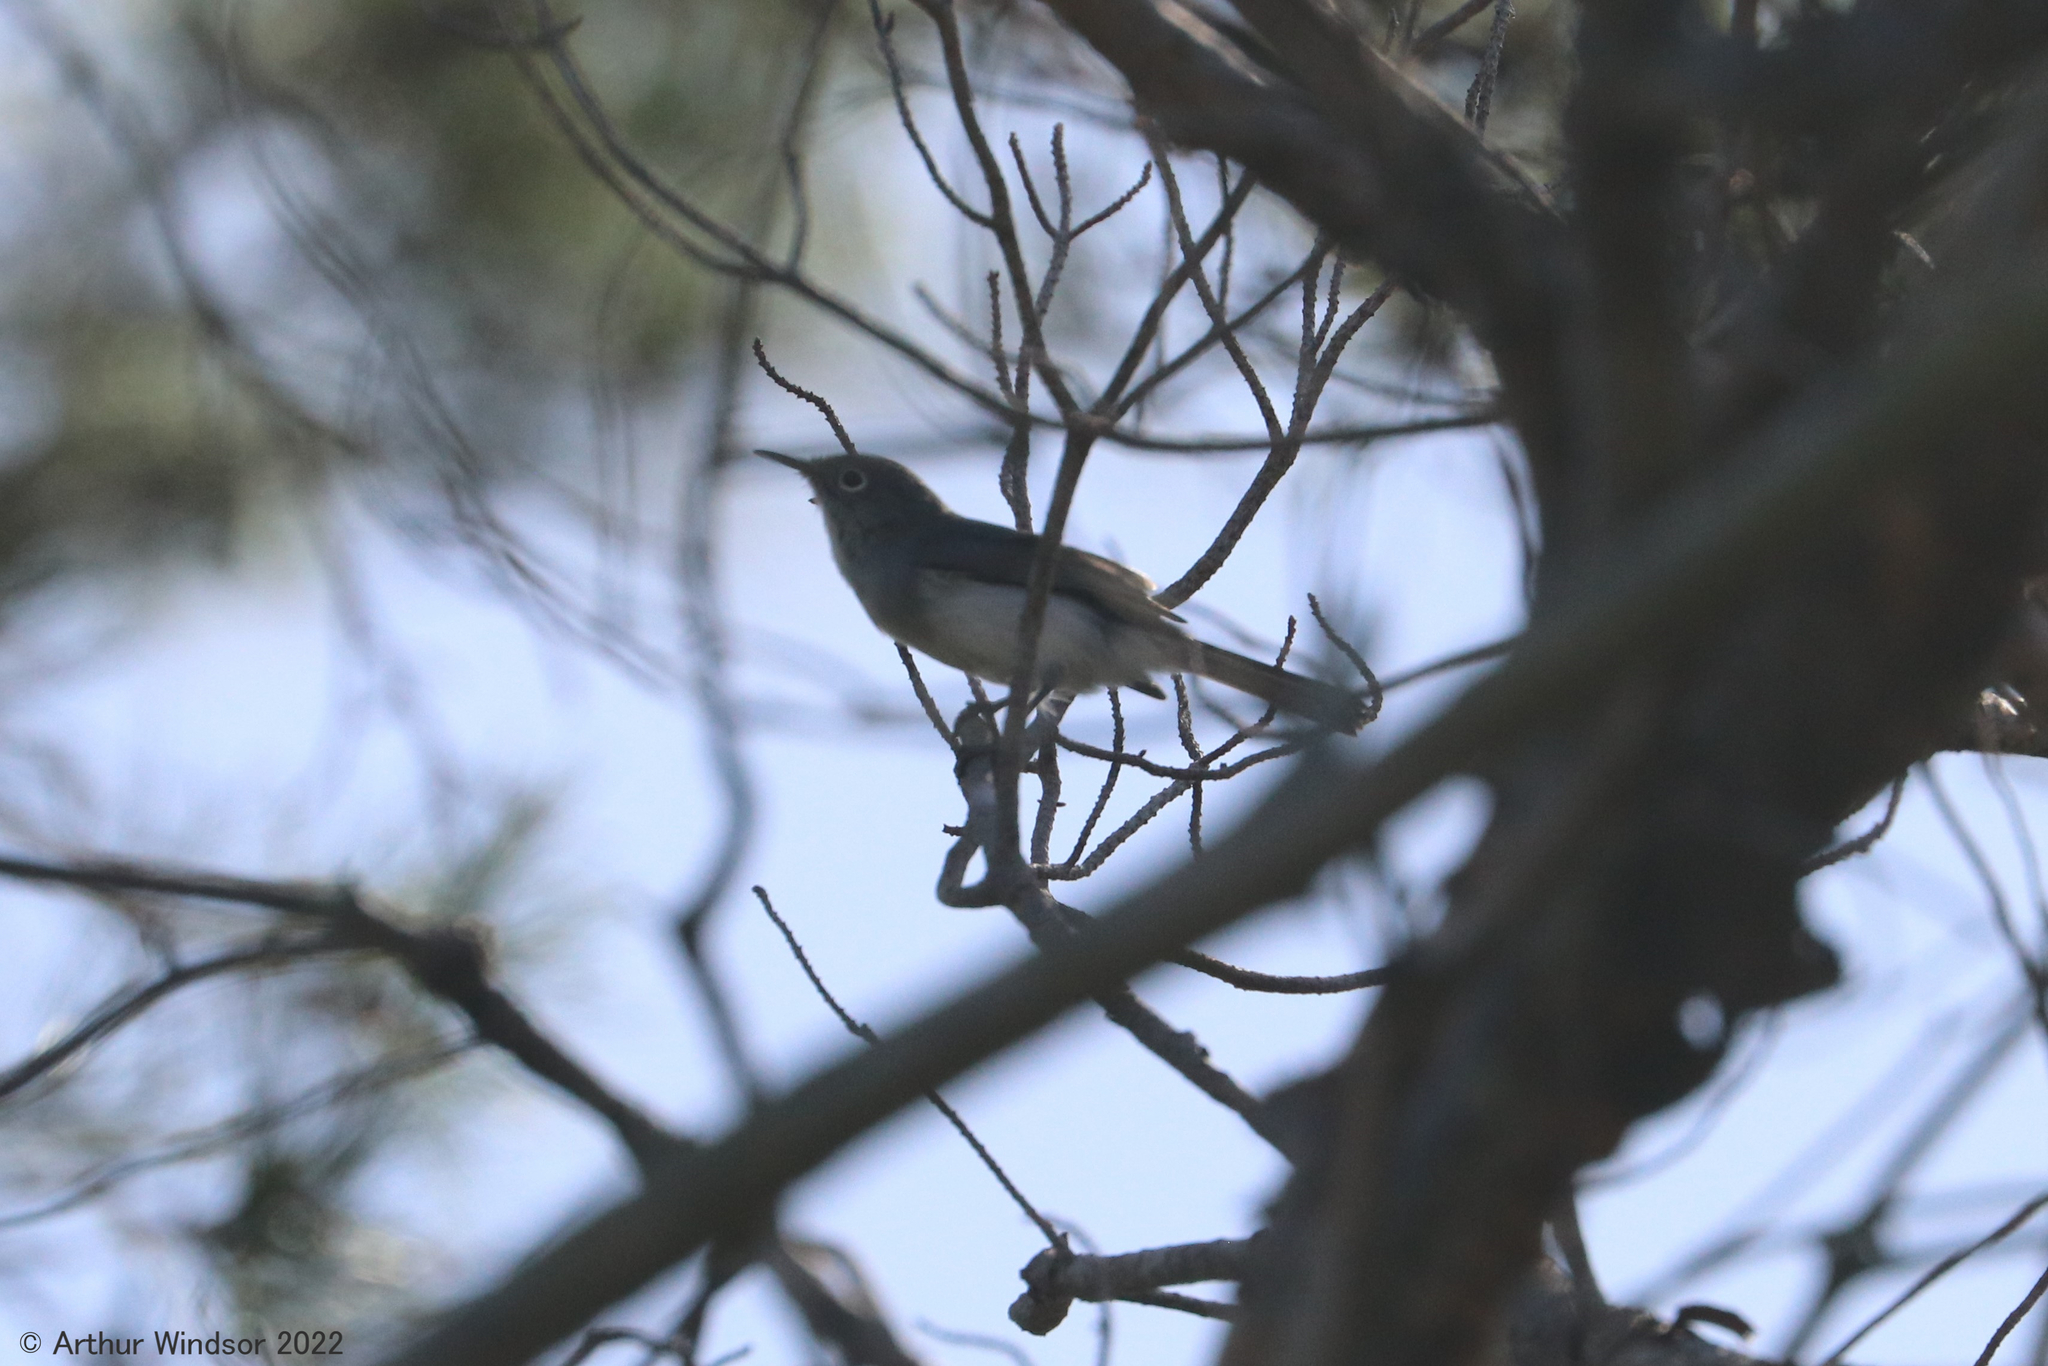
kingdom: Animalia
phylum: Chordata
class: Aves
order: Passeriformes
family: Polioptilidae
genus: Polioptila
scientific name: Polioptila caerulea
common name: Blue-gray gnatcatcher
